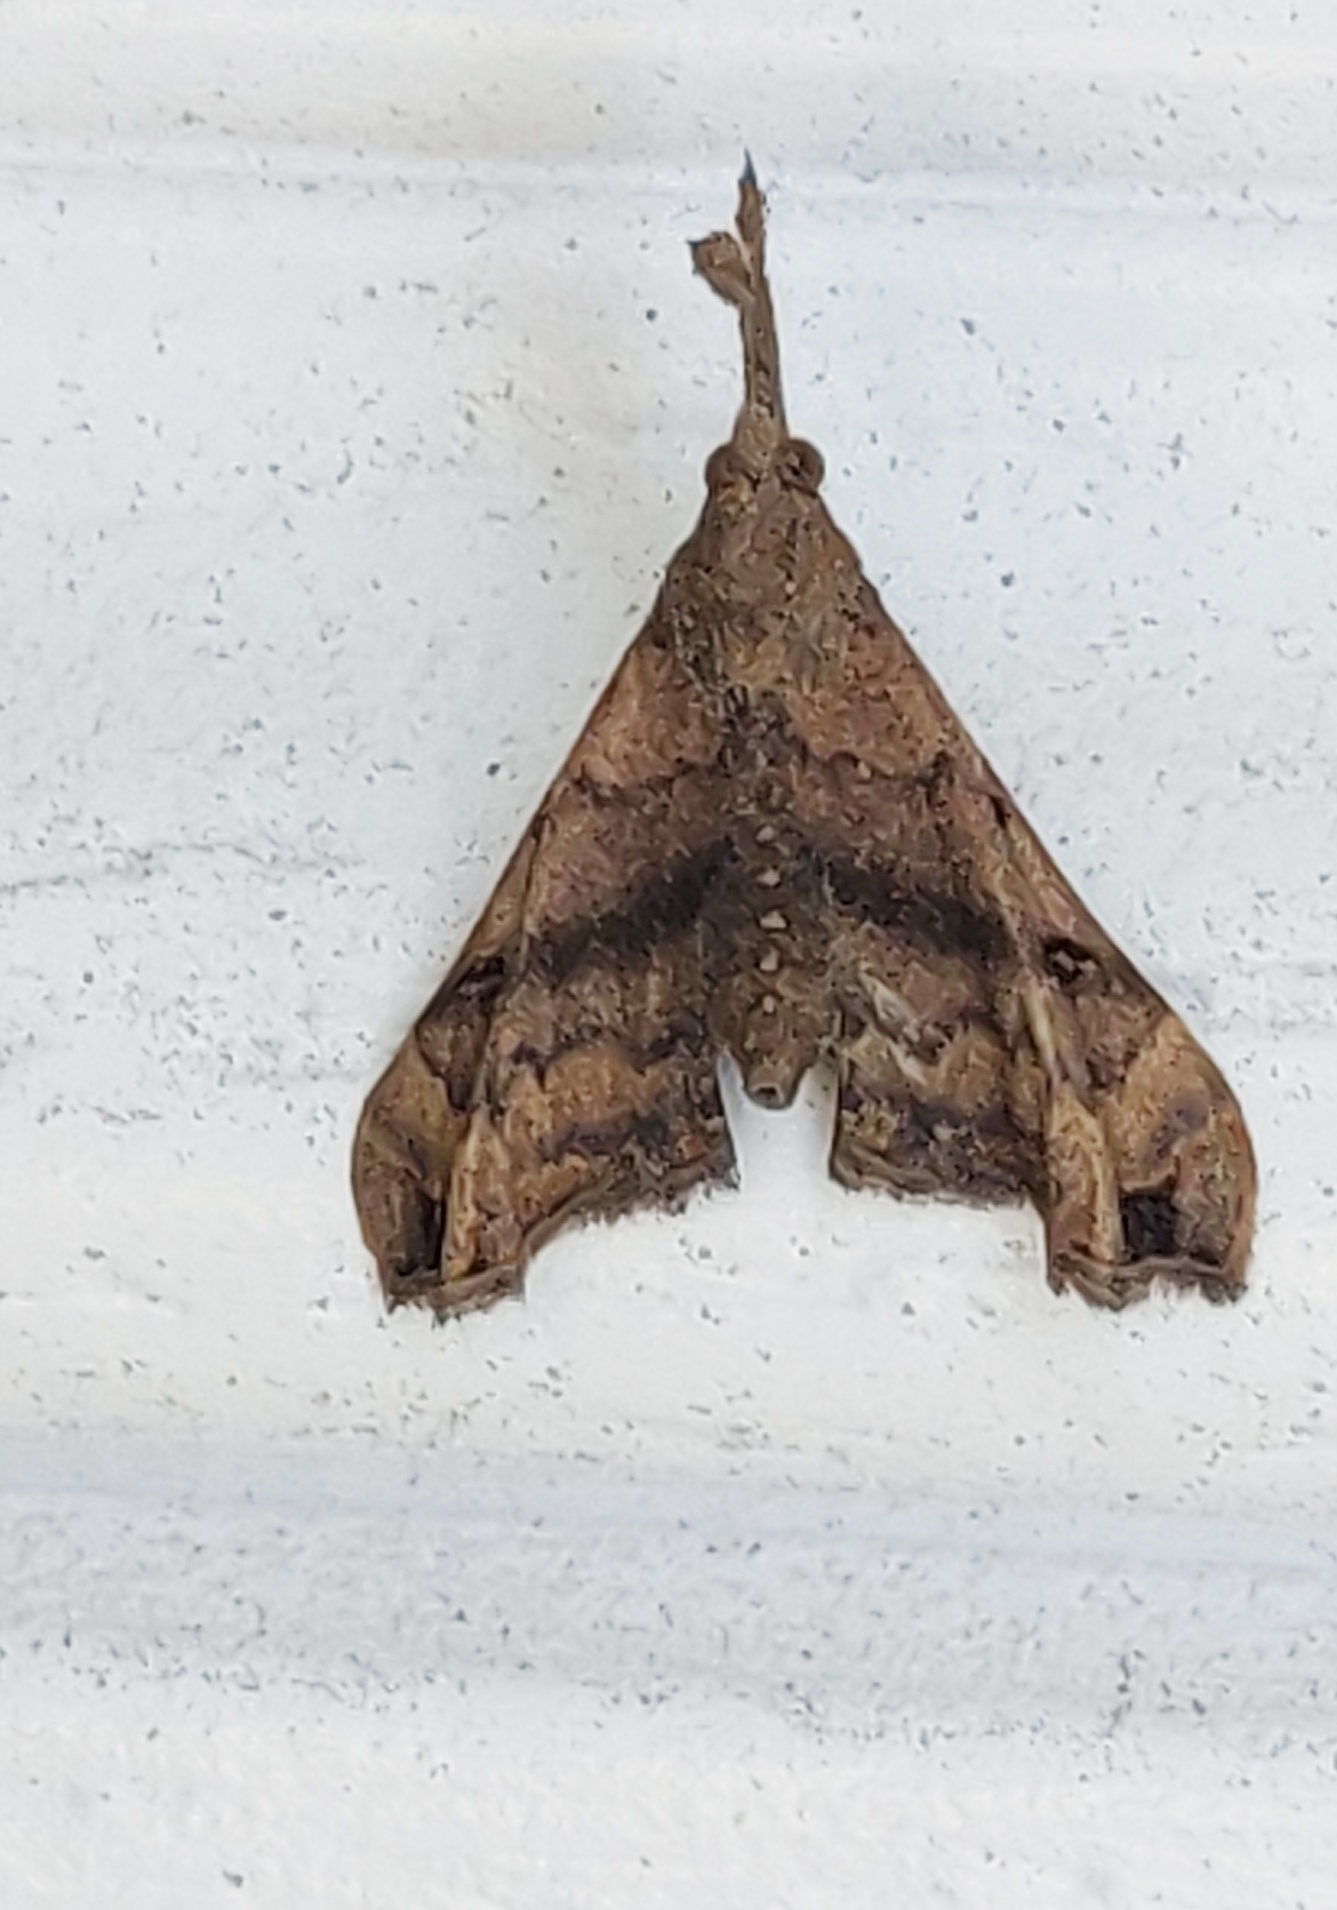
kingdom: Animalia
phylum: Arthropoda
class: Insecta
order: Lepidoptera
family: Erebidae
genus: Palthis
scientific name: Palthis asopialis
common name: Faint-spotted palthis moth
